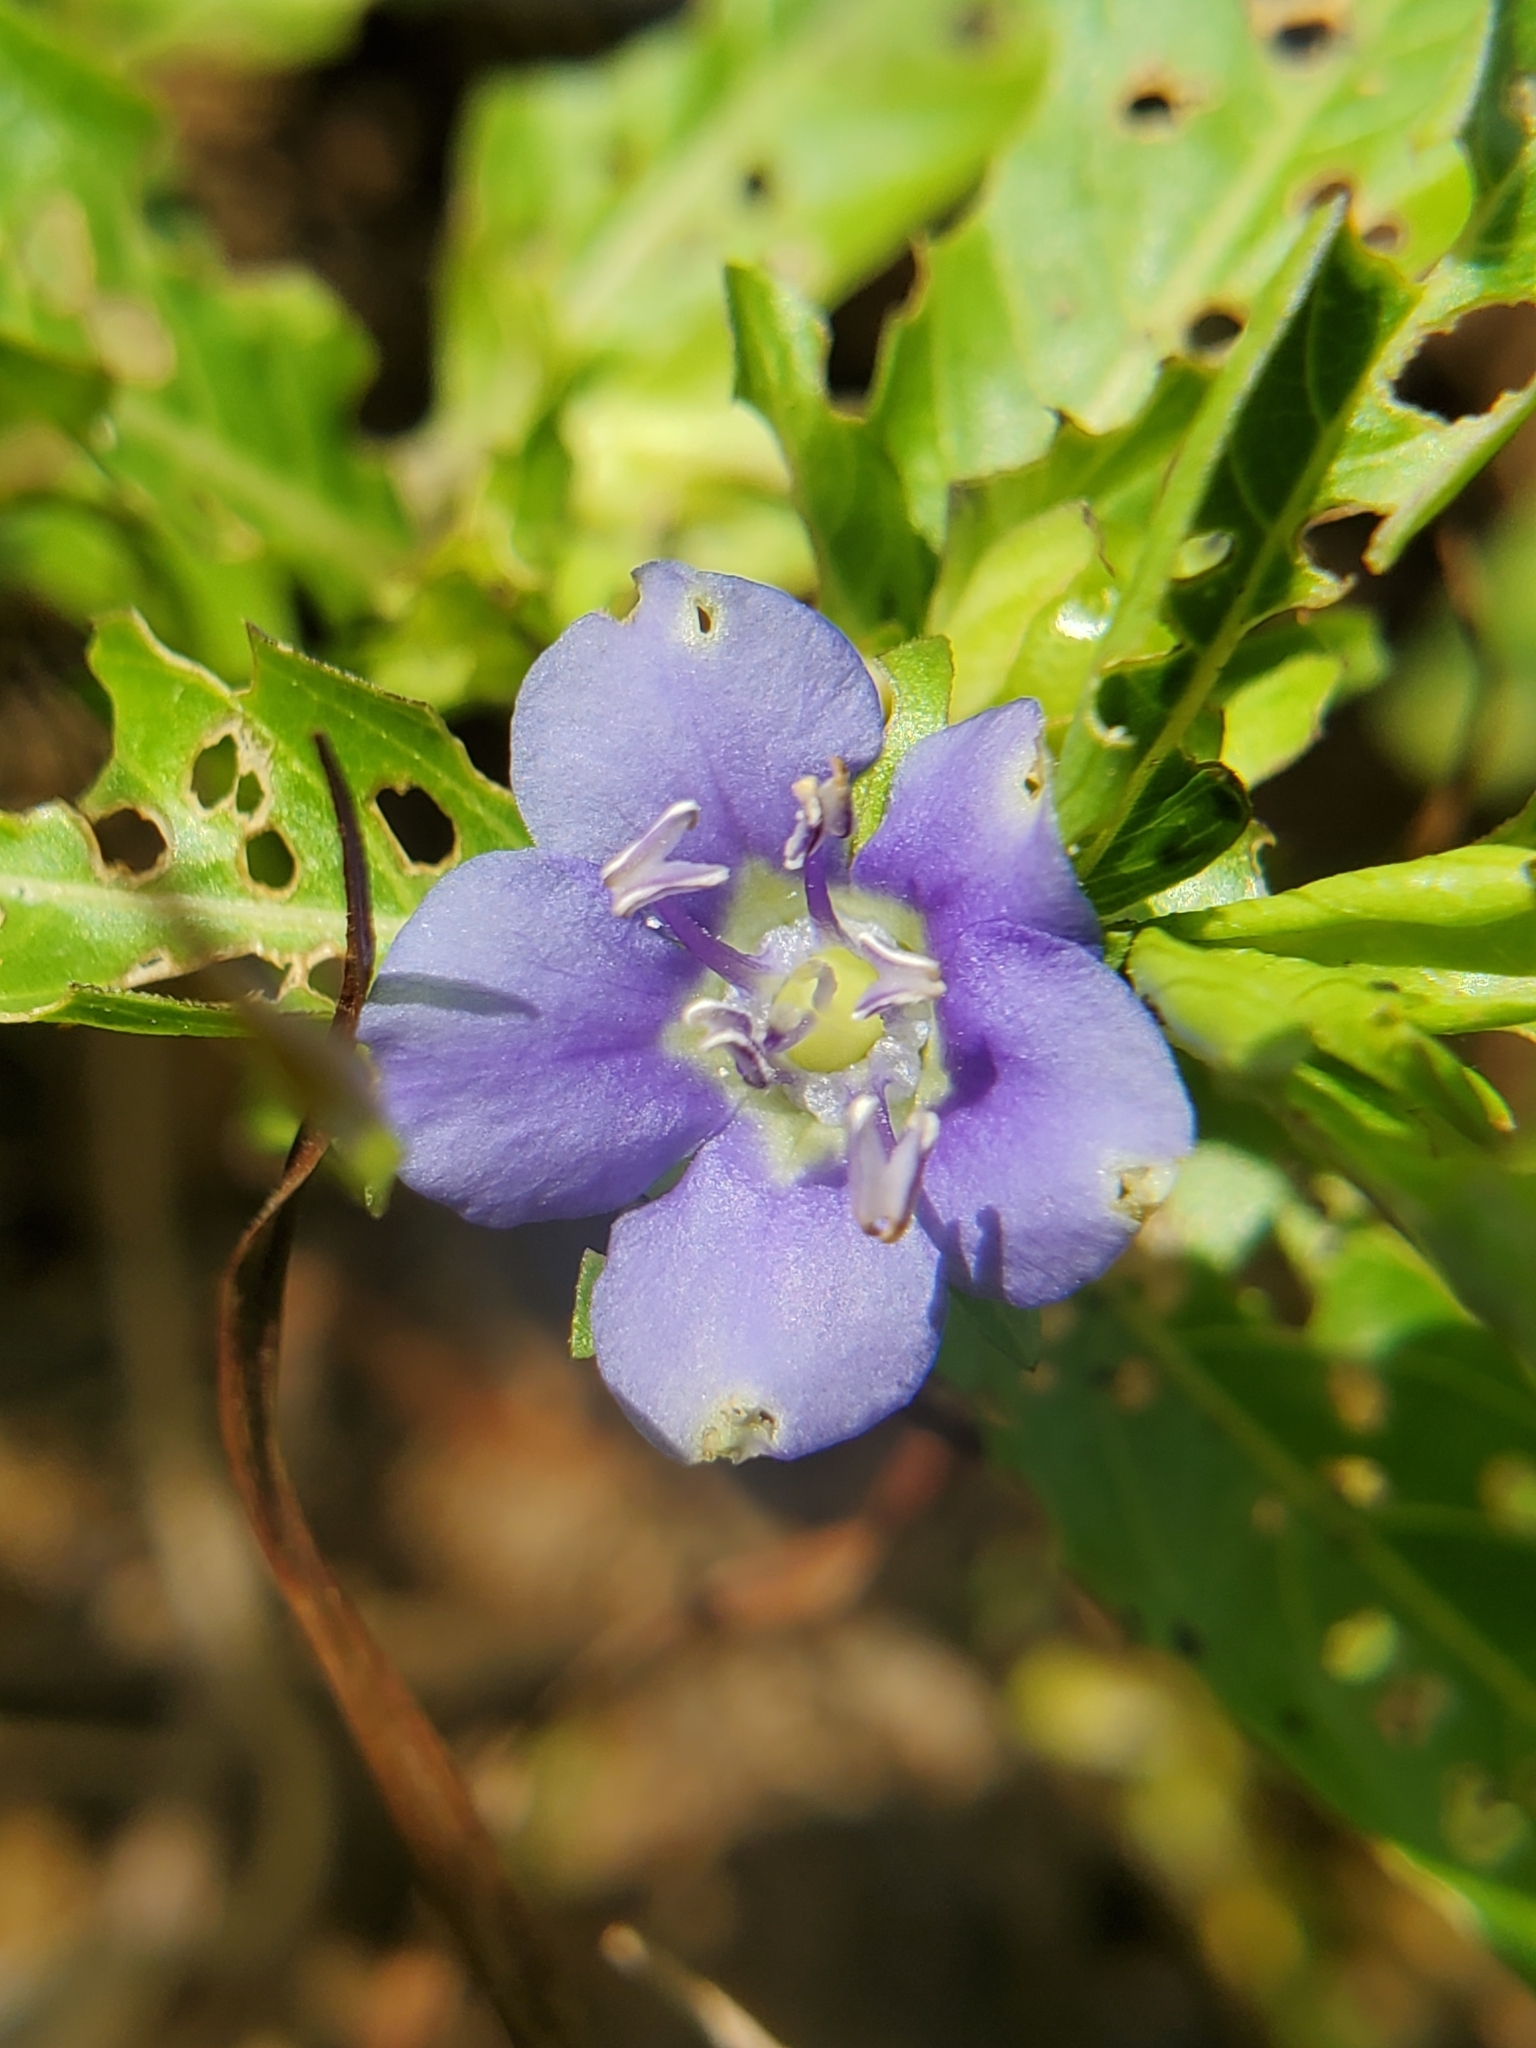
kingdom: Plantae
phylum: Tracheophyta
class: Magnoliopsida
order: Solanales
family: Hydroleaceae
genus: Hydrolea
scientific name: Hydrolea ovata
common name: Ovate false fiddleleaf
